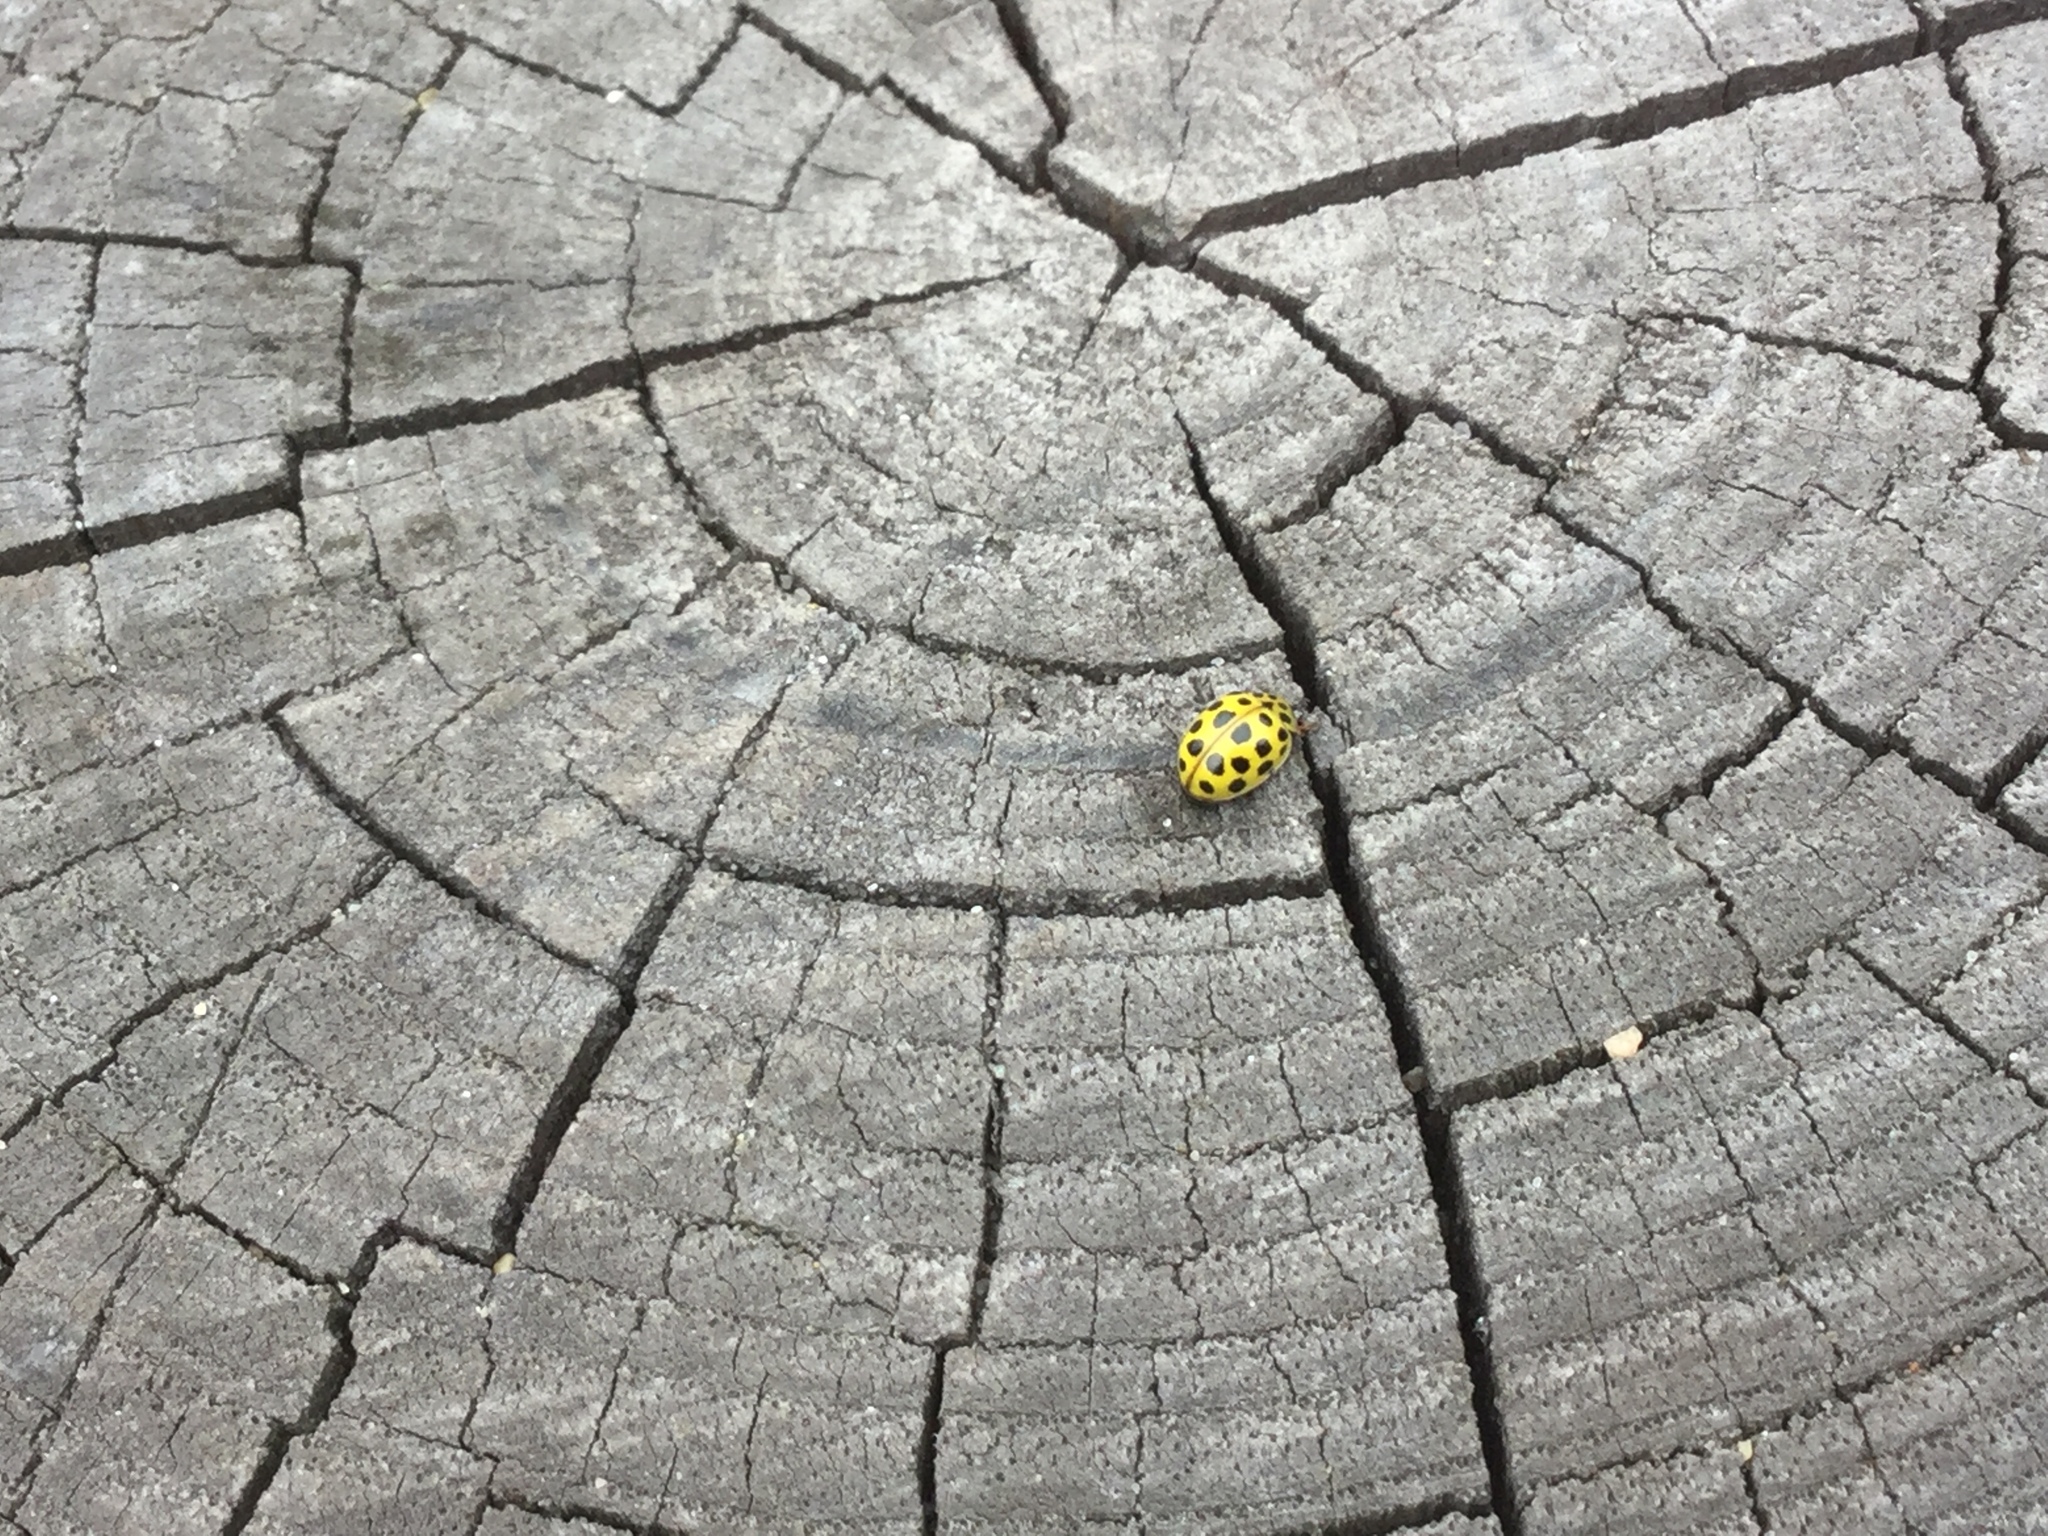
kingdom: Animalia
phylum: Arthropoda
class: Insecta
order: Coleoptera
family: Coccinellidae
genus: Psyllobora
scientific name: Psyllobora vigintiduopunctata
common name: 22-spot ladybird
